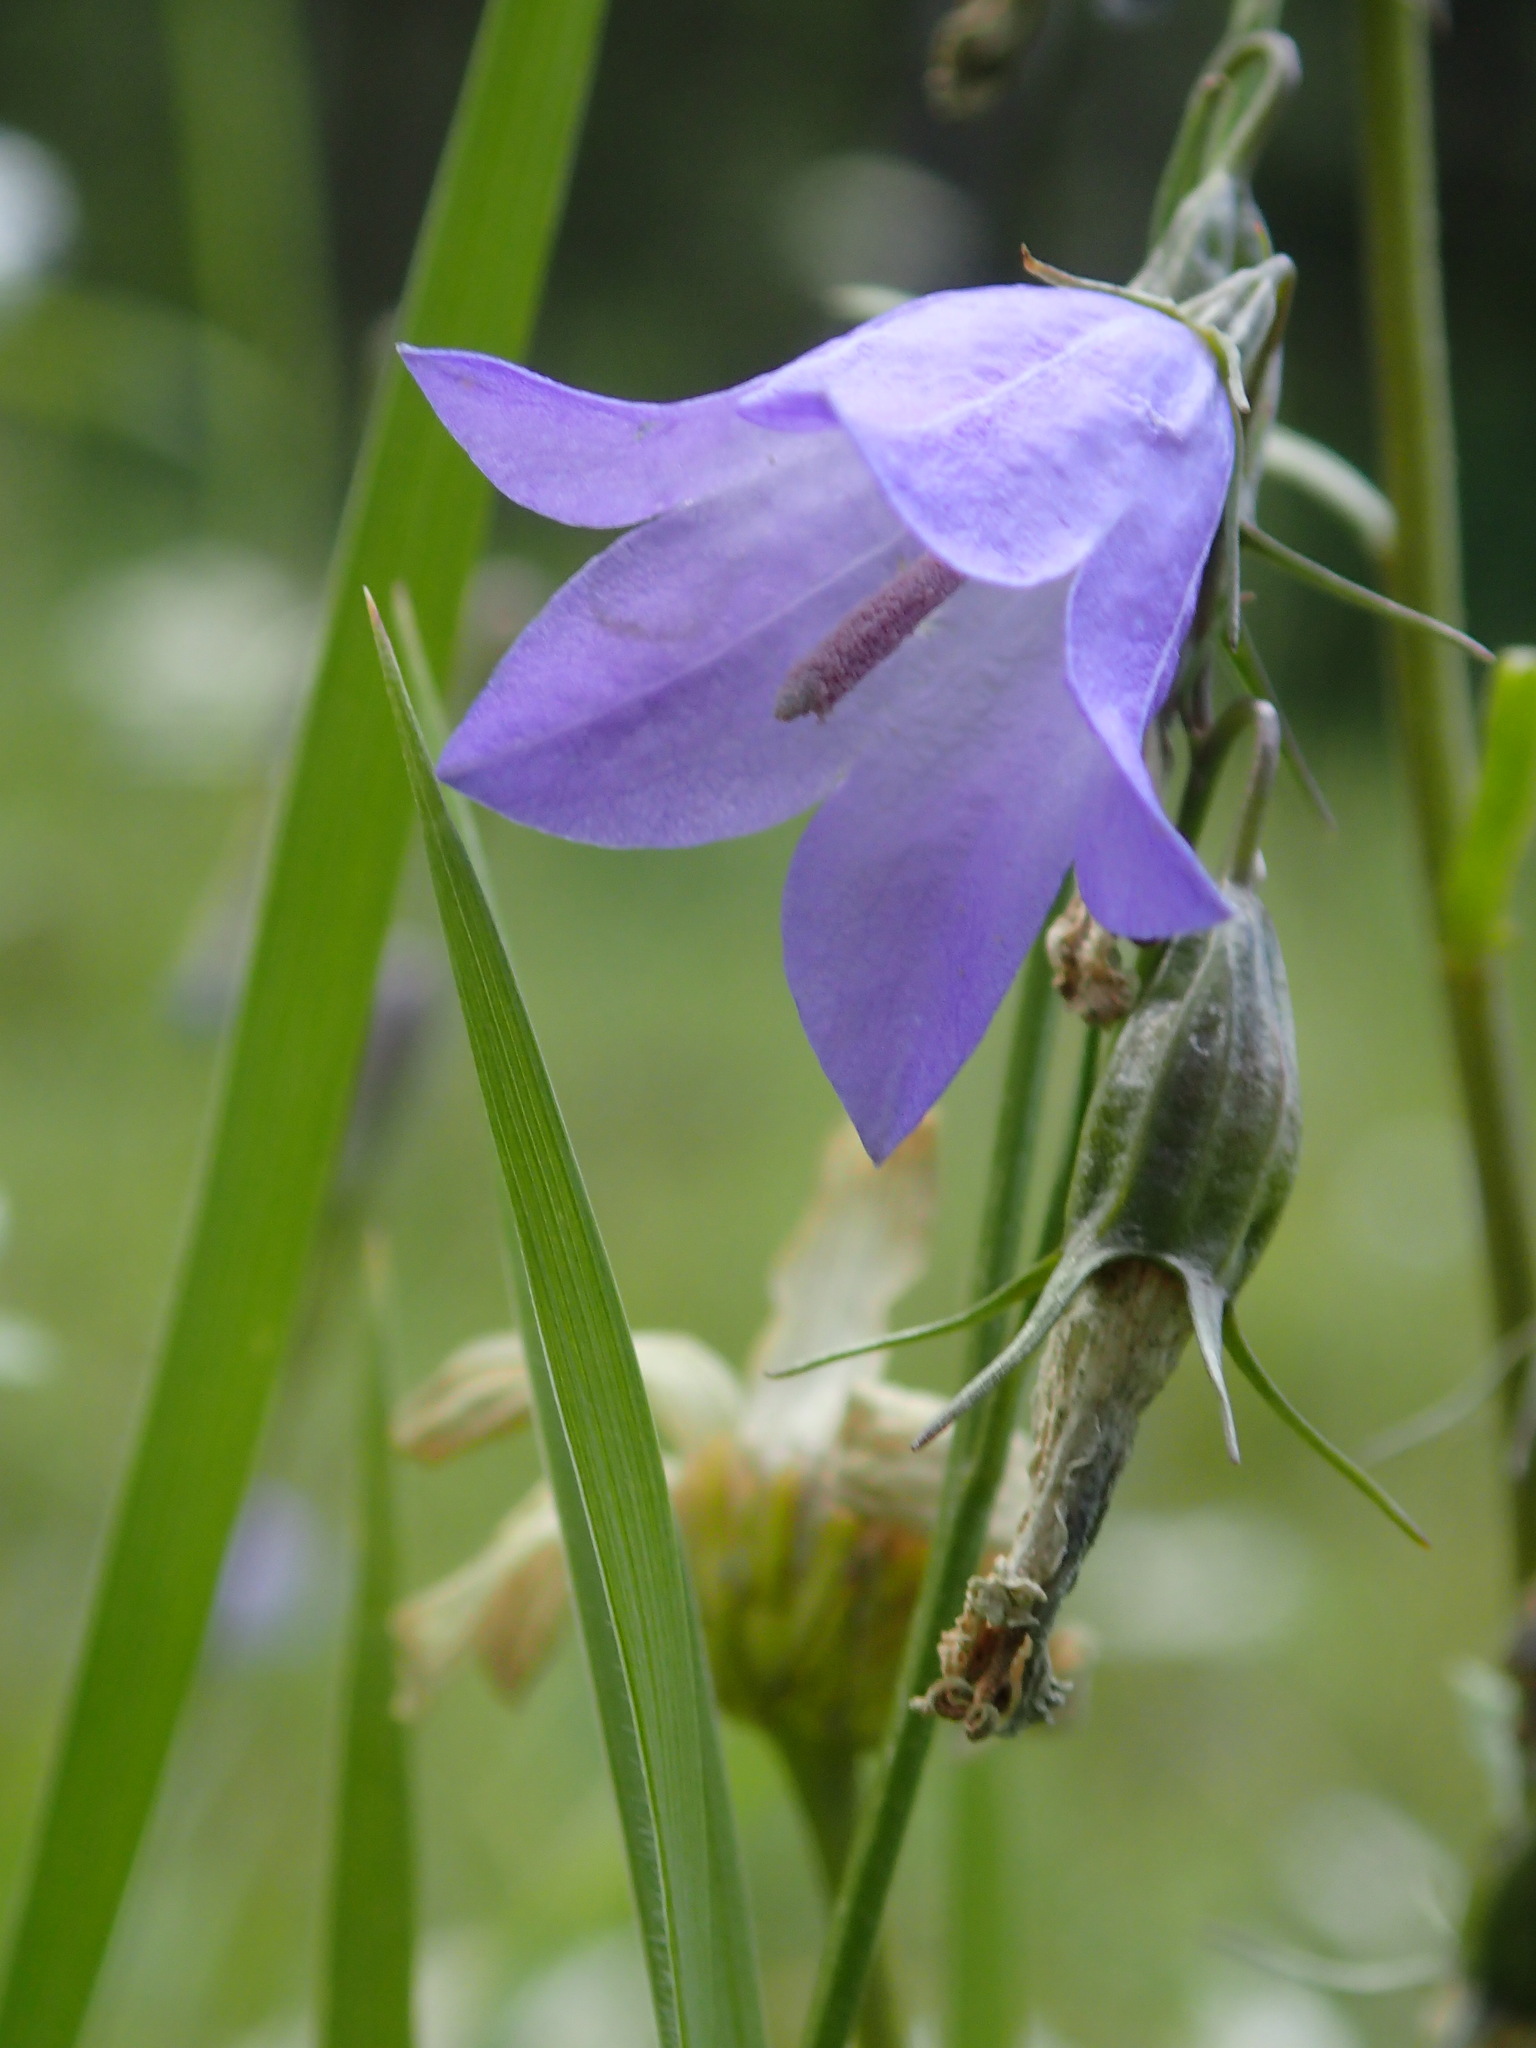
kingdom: Plantae
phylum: Tracheophyta
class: Magnoliopsida
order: Asterales
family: Campanulaceae
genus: Campanula
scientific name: Campanula alaskana
